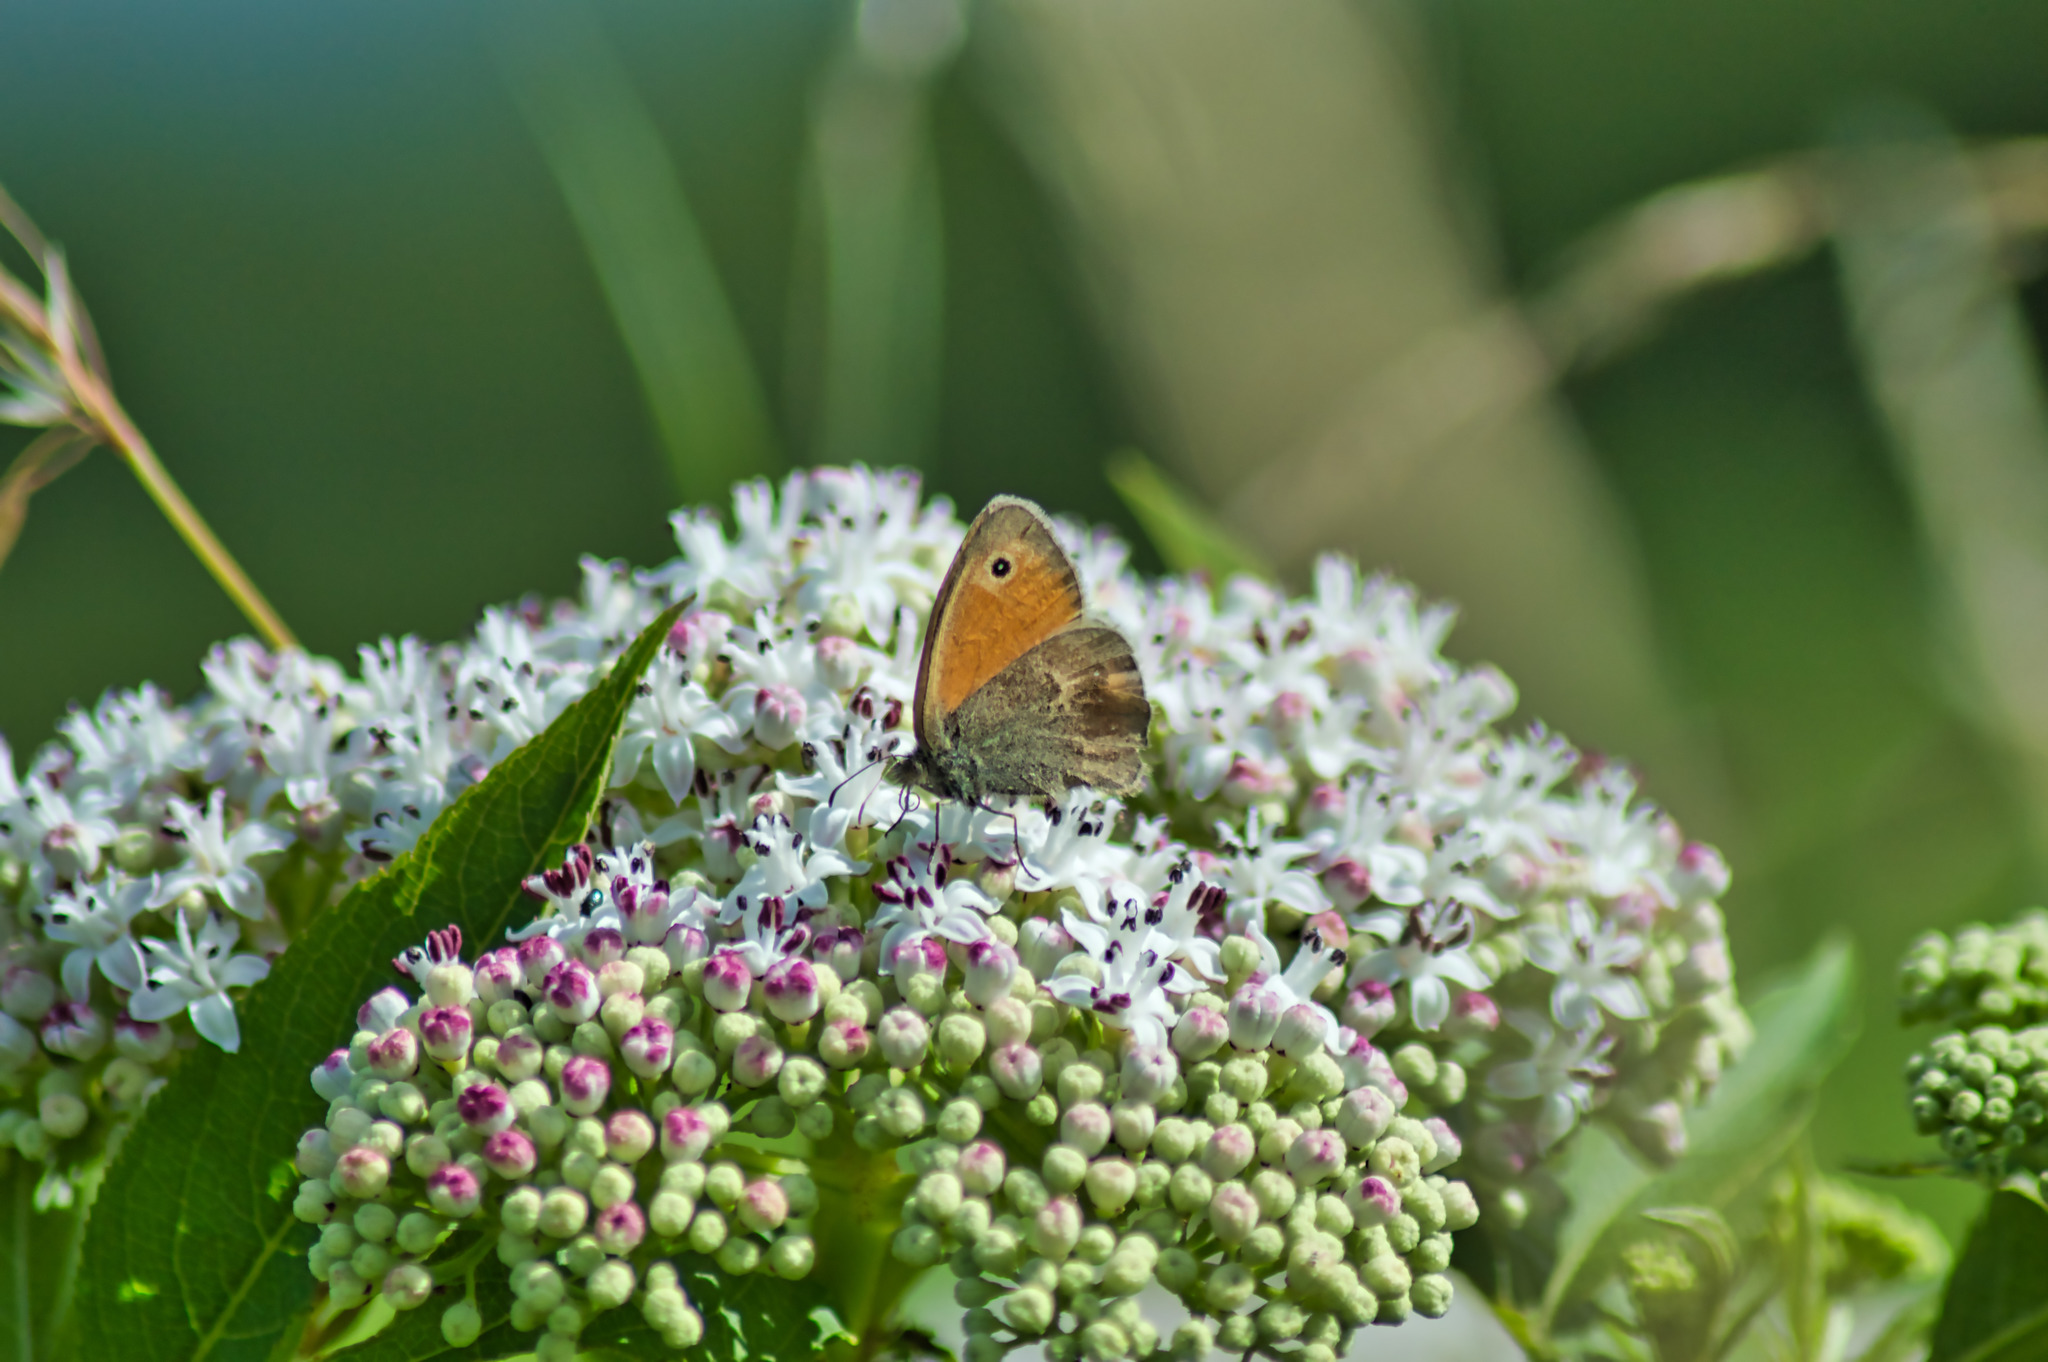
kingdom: Animalia
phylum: Arthropoda
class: Insecta
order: Lepidoptera
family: Nymphalidae
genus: Coenonympha
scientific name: Coenonympha pamphilus
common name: Small heath
